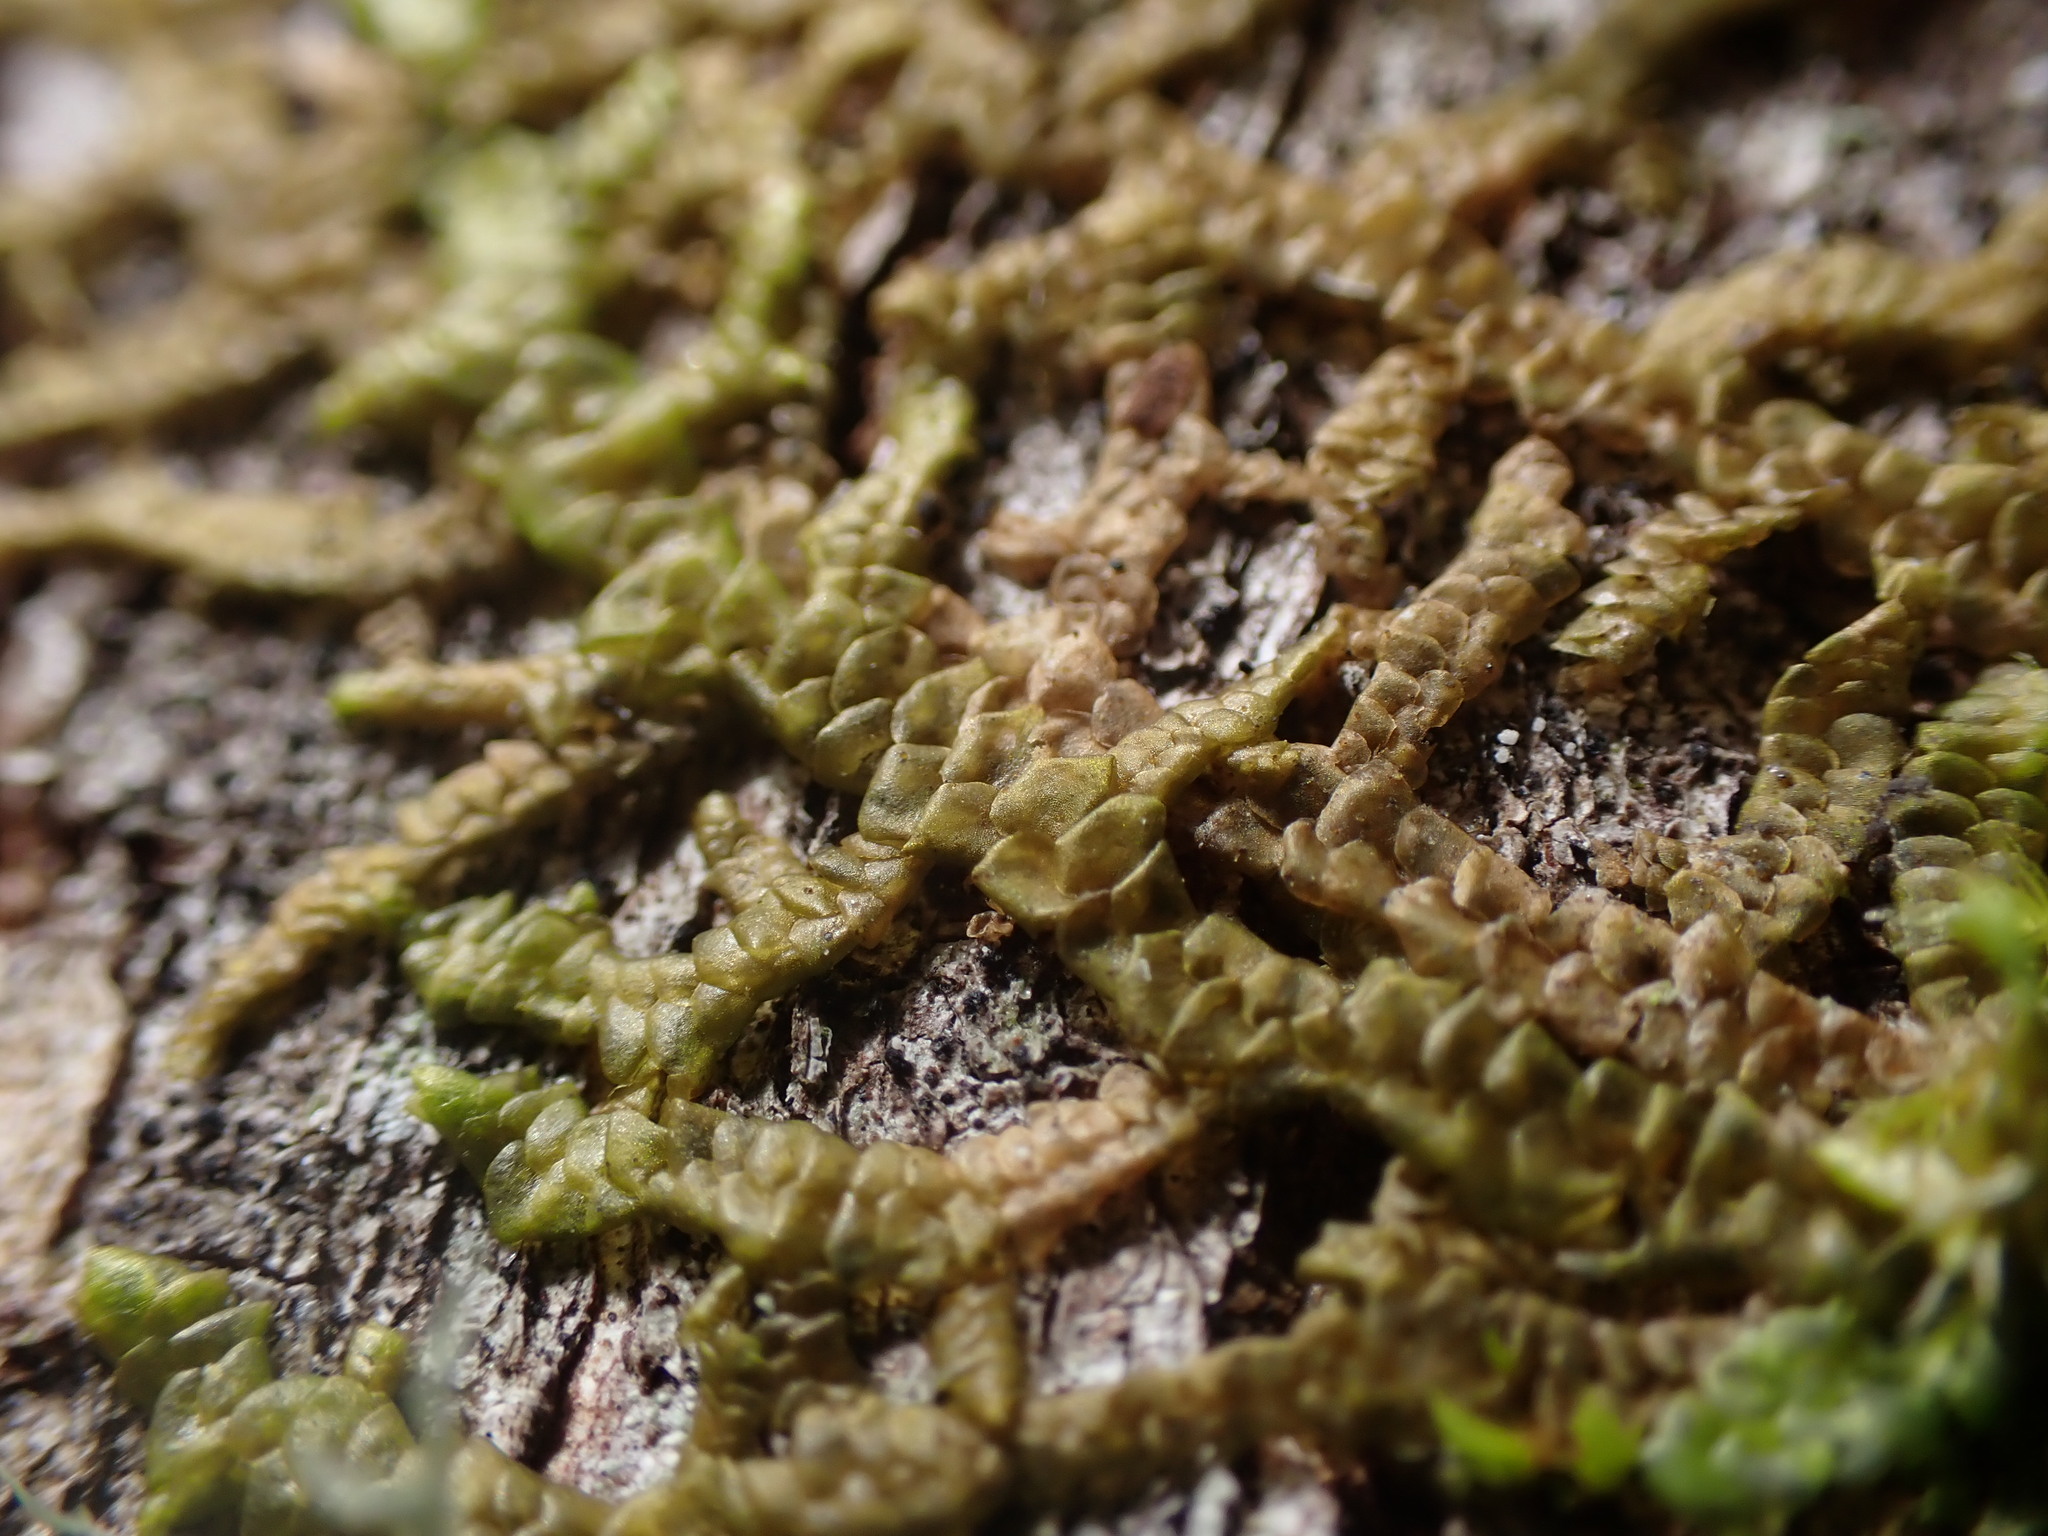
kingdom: Plantae
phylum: Marchantiophyta
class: Jungermanniopsida
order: Porellales
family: Porellaceae
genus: Porella
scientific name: Porella navicularis
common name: Tree ruffle liverwort
